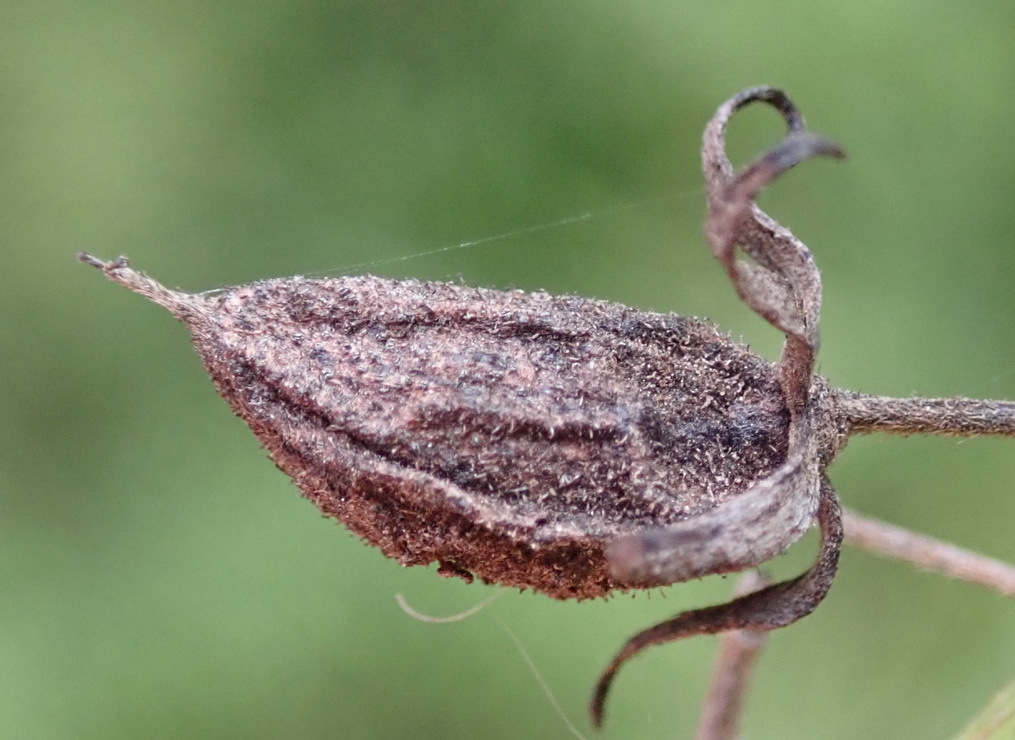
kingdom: Plantae
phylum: Tracheophyta
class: Magnoliopsida
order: Ericales
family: Ebenaceae
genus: Diospyros
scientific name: Diospyros glabra
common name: Fynbos star apple
